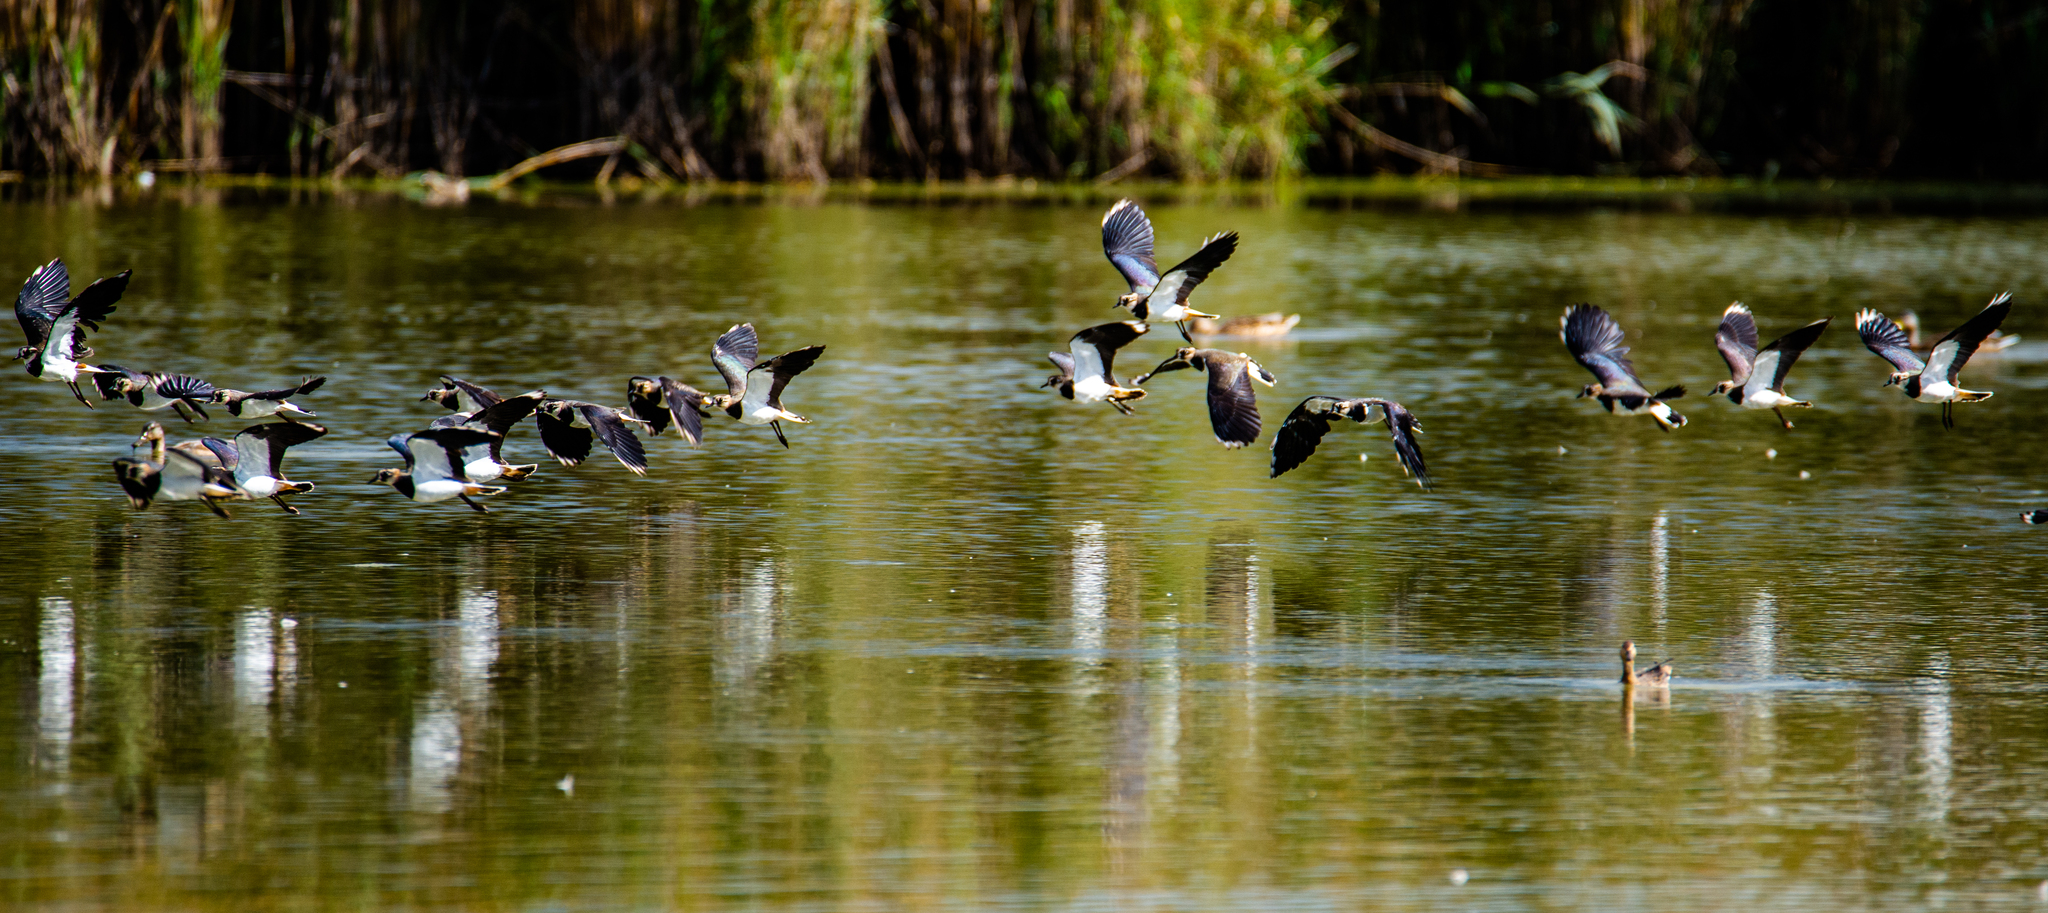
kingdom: Animalia
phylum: Chordata
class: Aves
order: Charadriiformes
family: Charadriidae
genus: Vanellus
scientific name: Vanellus vanellus
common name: Northern lapwing
